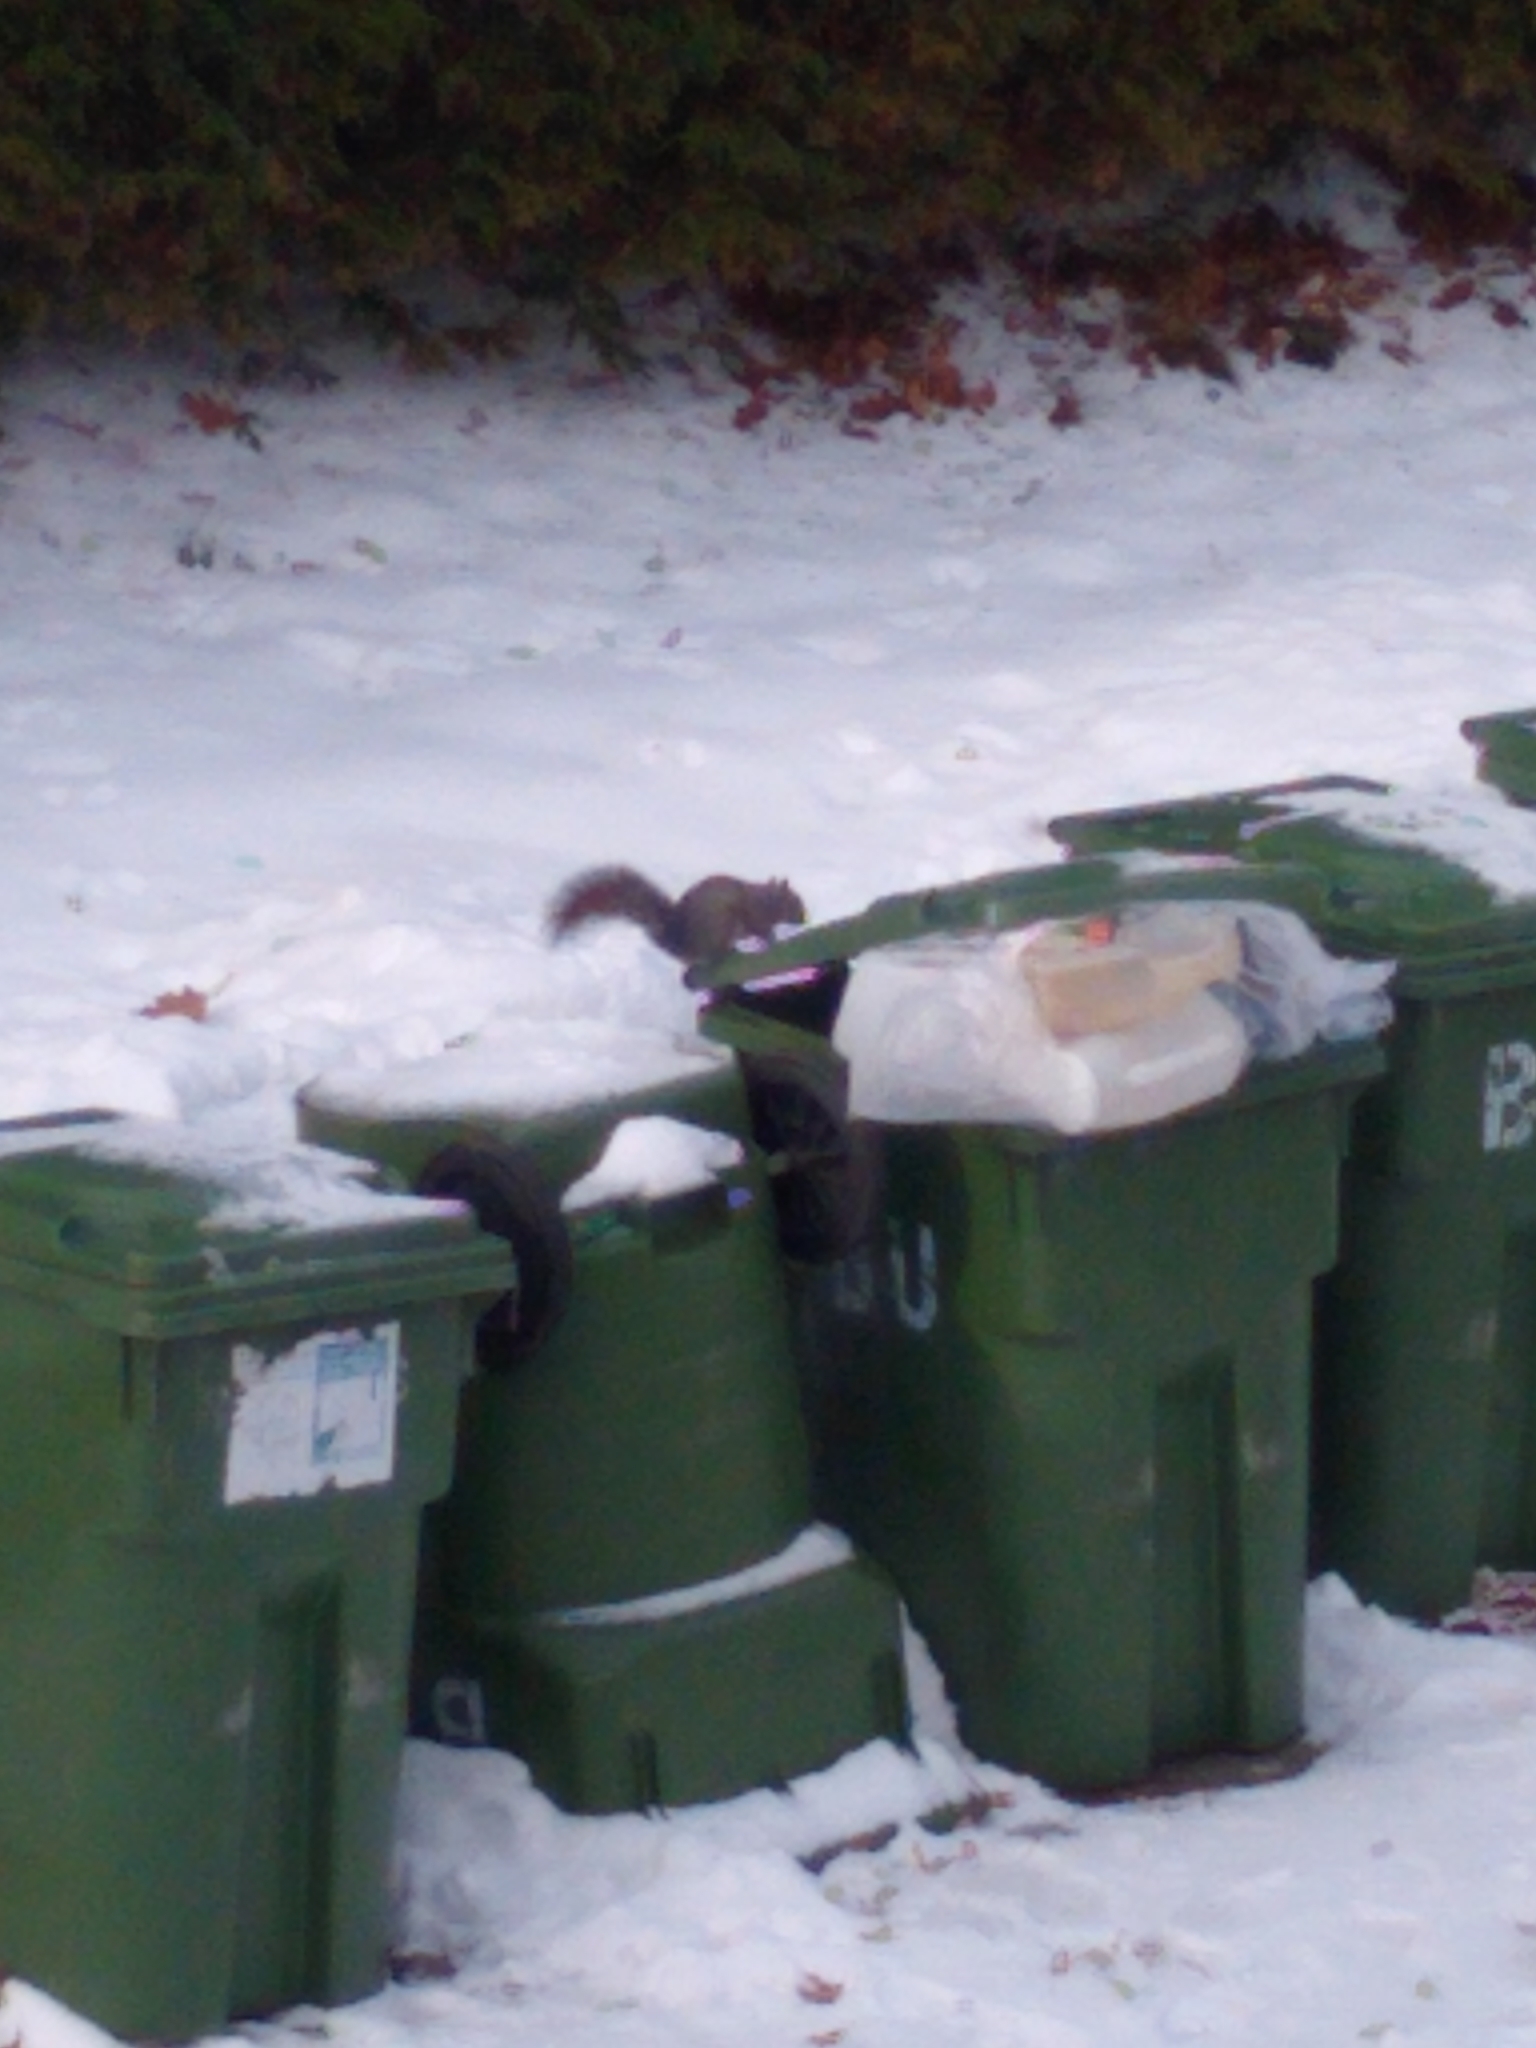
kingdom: Animalia
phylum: Chordata
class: Mammalia
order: Rodentia
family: Sciuridae
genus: Sciurus
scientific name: Sciurus carolinensis
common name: Eastern gray squirrel
